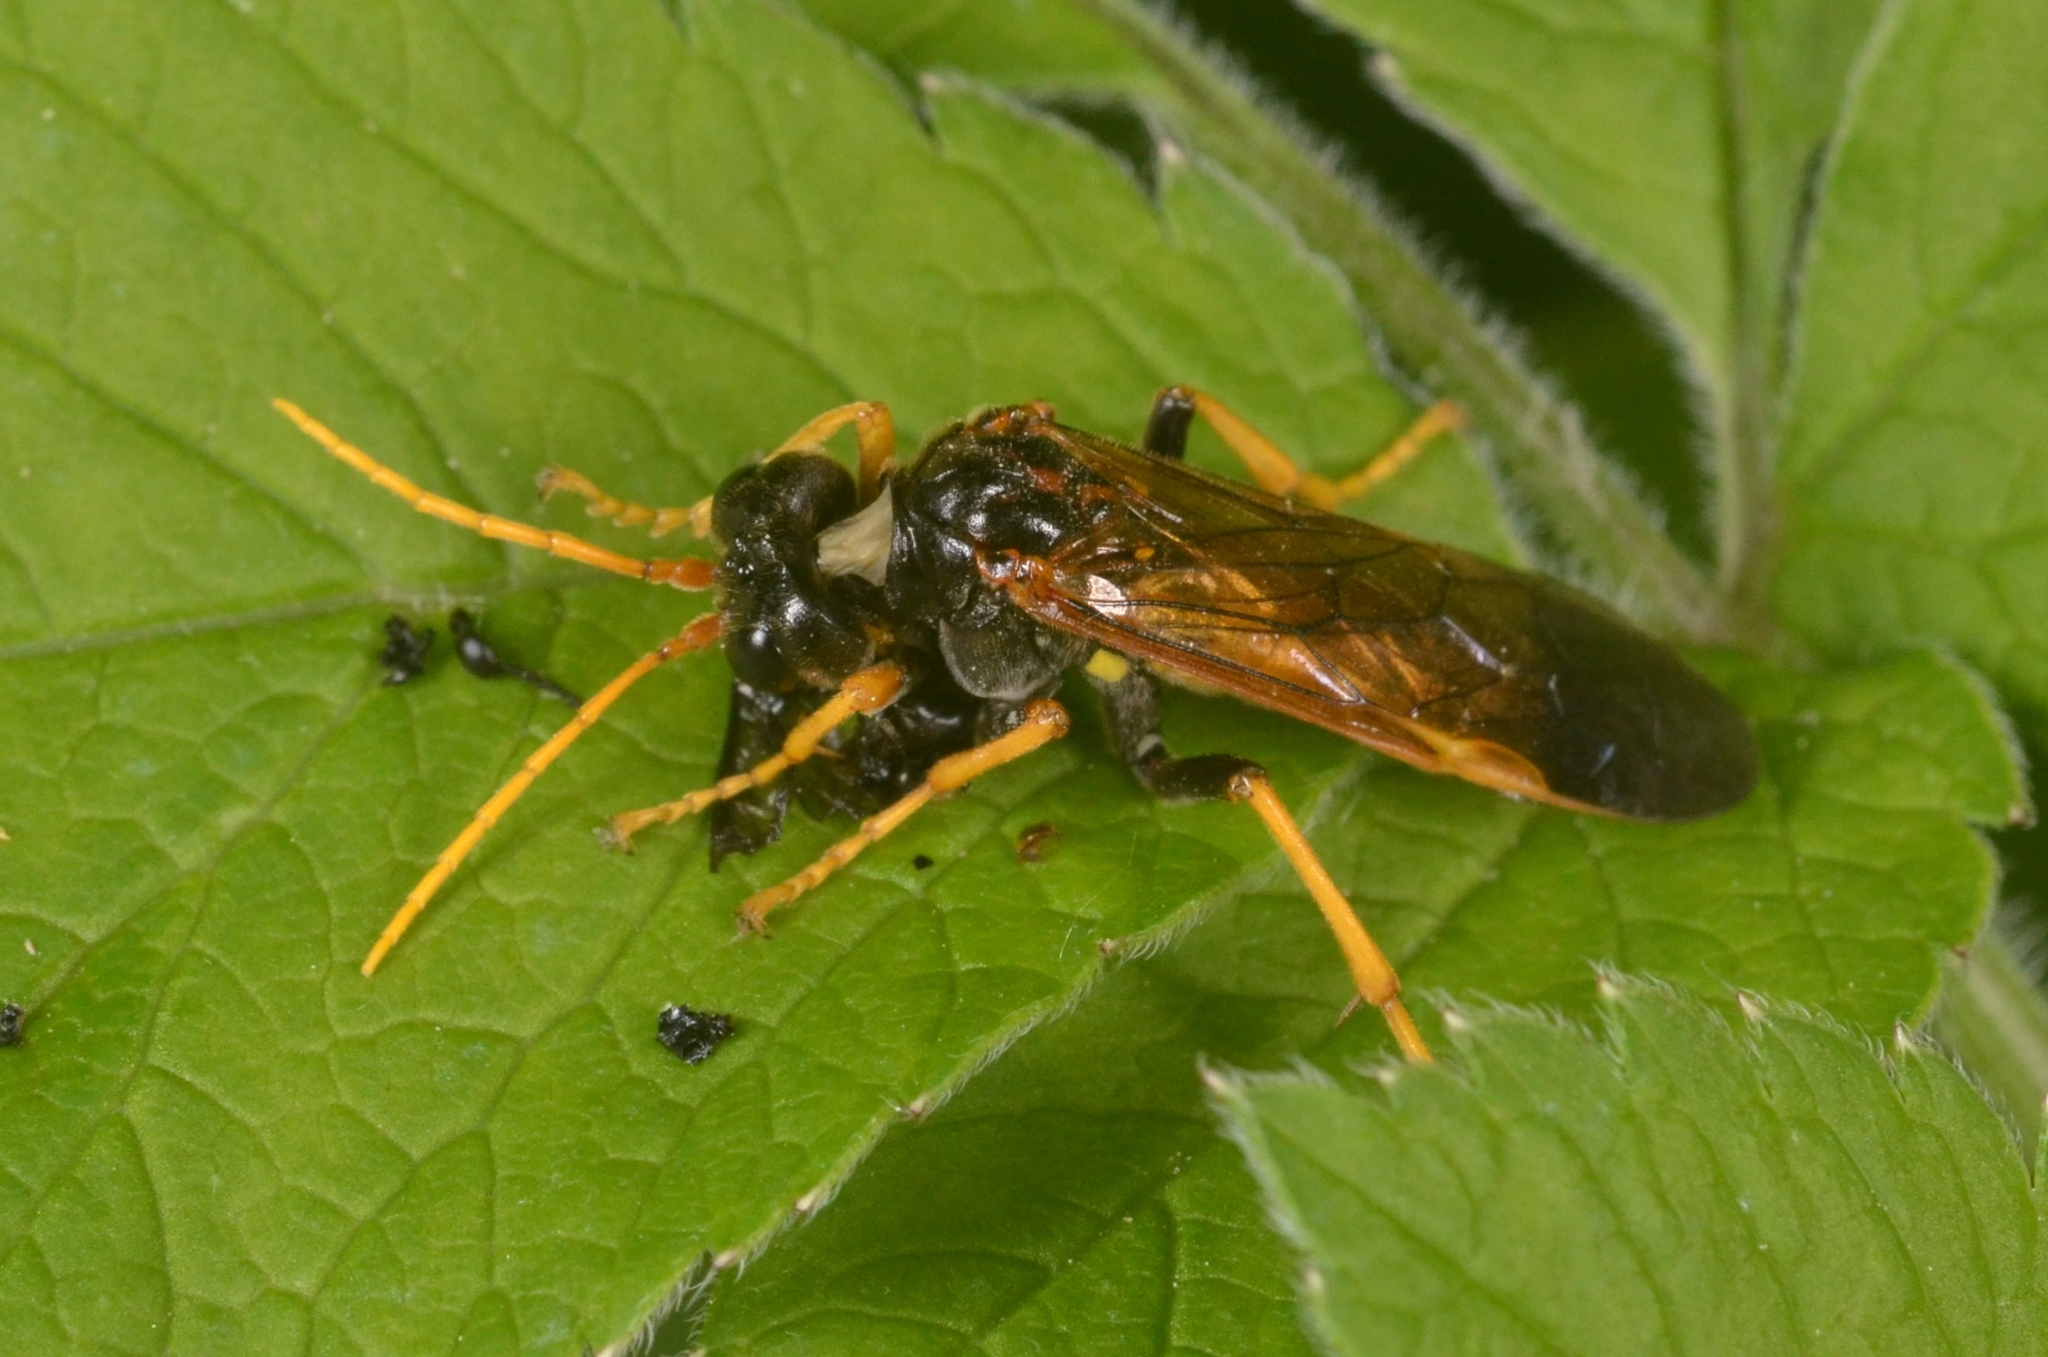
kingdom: Animalia
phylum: Arthropoda
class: Insecta
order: Hymenoptera
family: Tenthredinidae
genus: Tenthredo
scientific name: Tenthredo campestris
